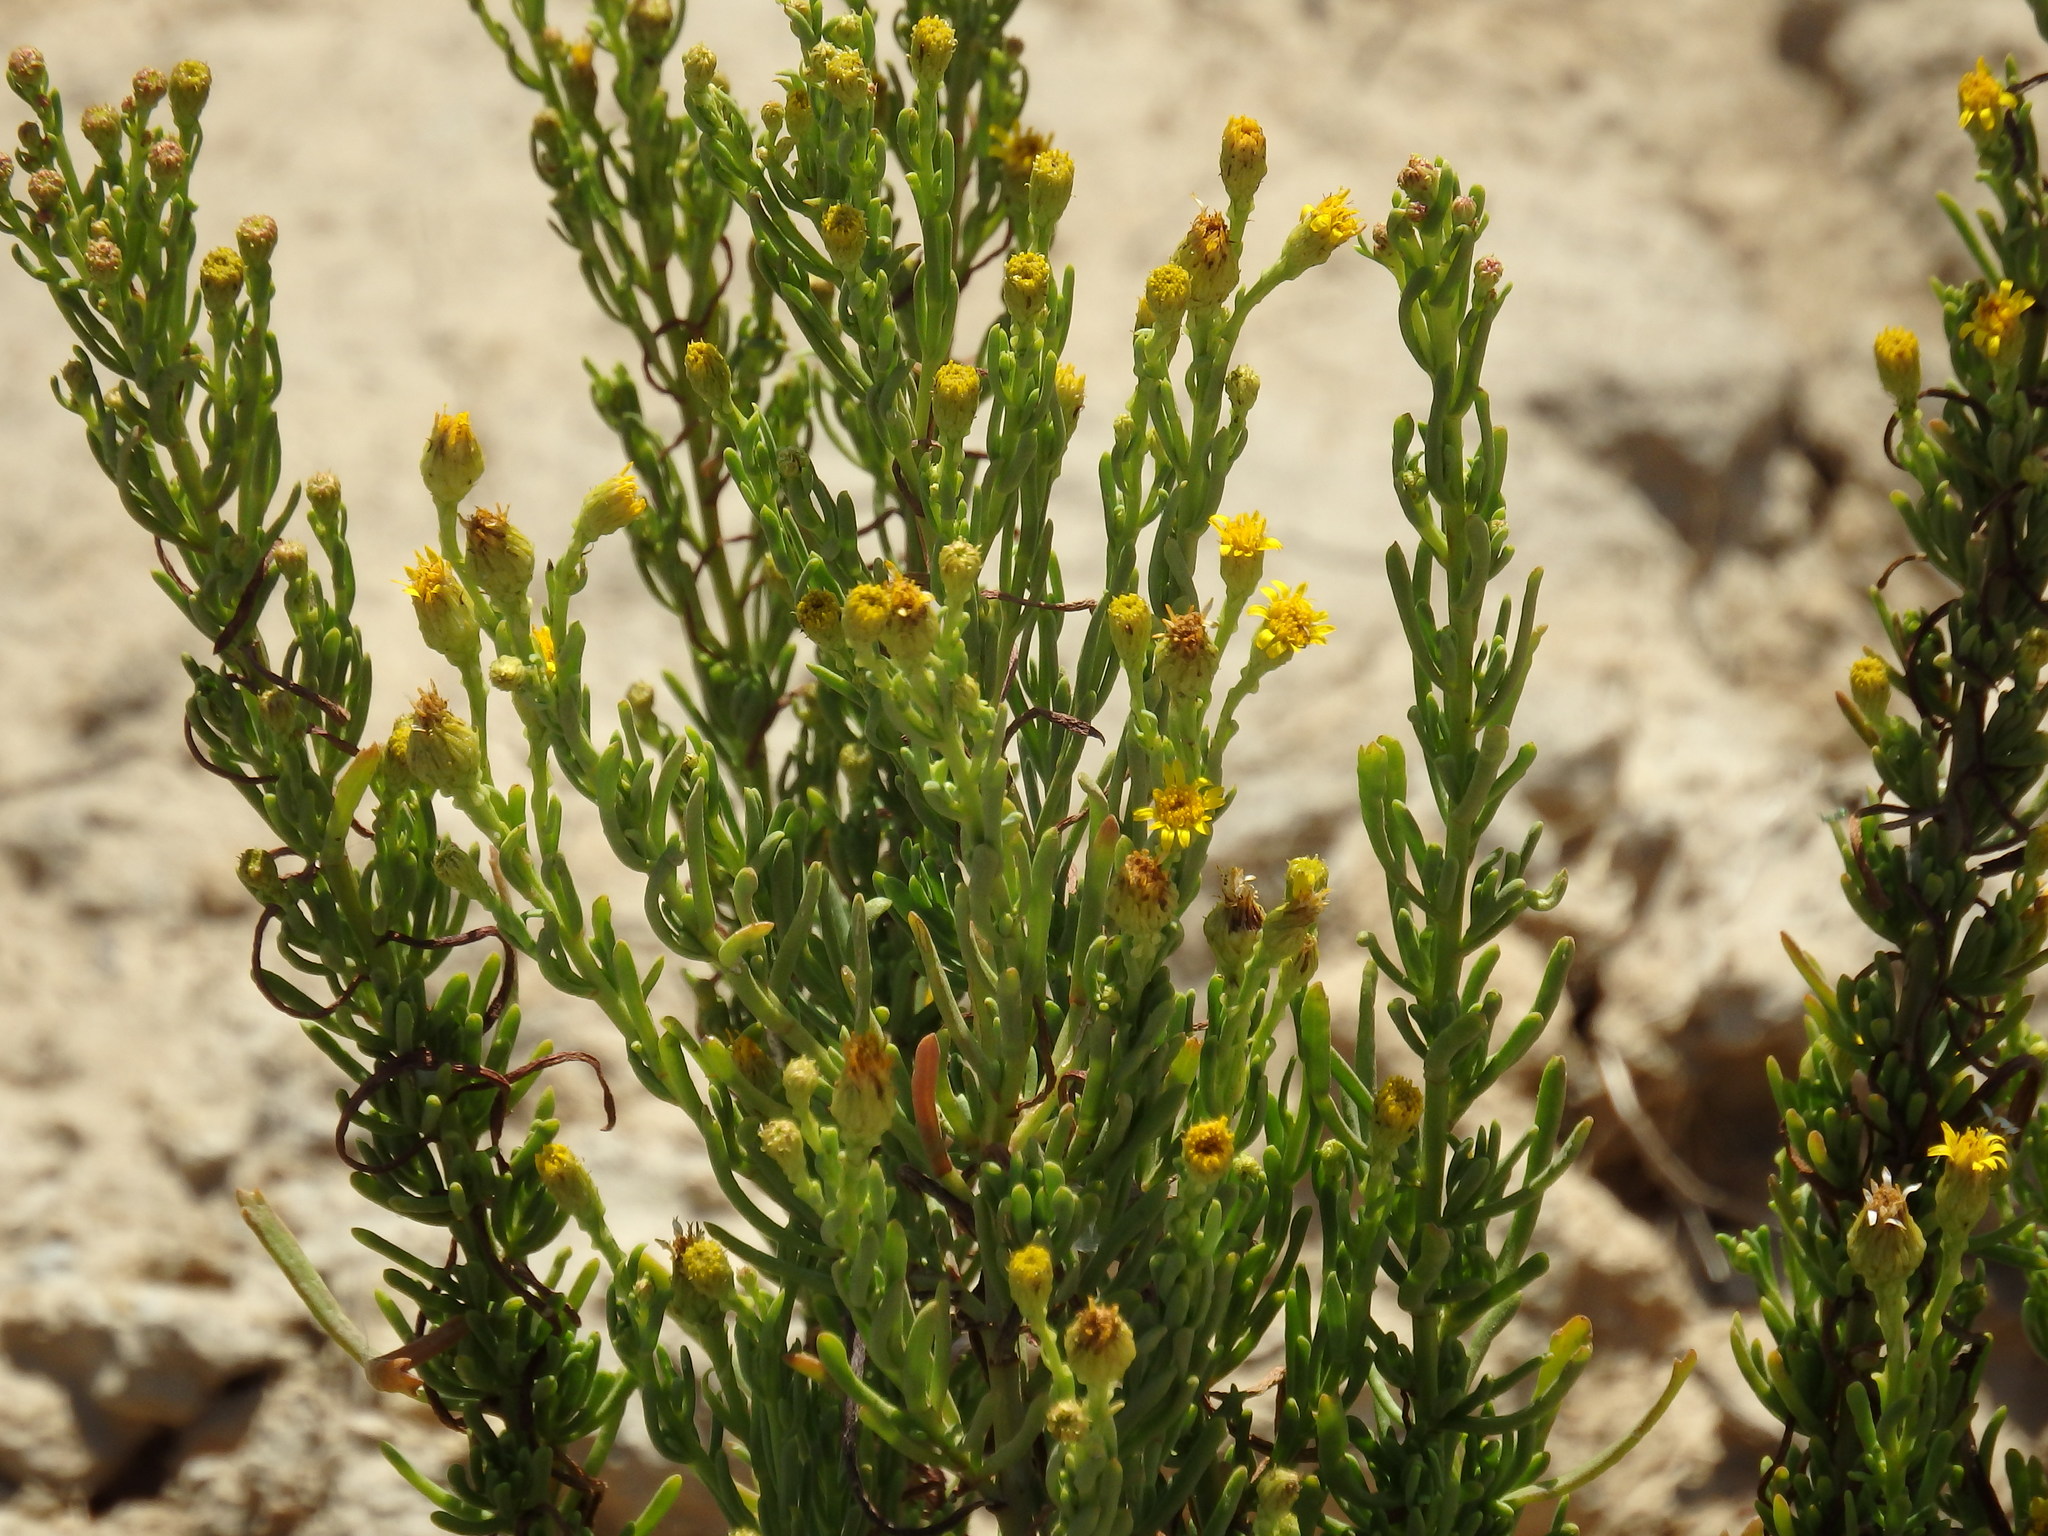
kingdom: Plantae
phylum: Tracheophyta
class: Magnoliopsida
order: Asterales
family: Asteraceae
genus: Limbarda
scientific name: Limbarda crithmoides
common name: Golden samphire
